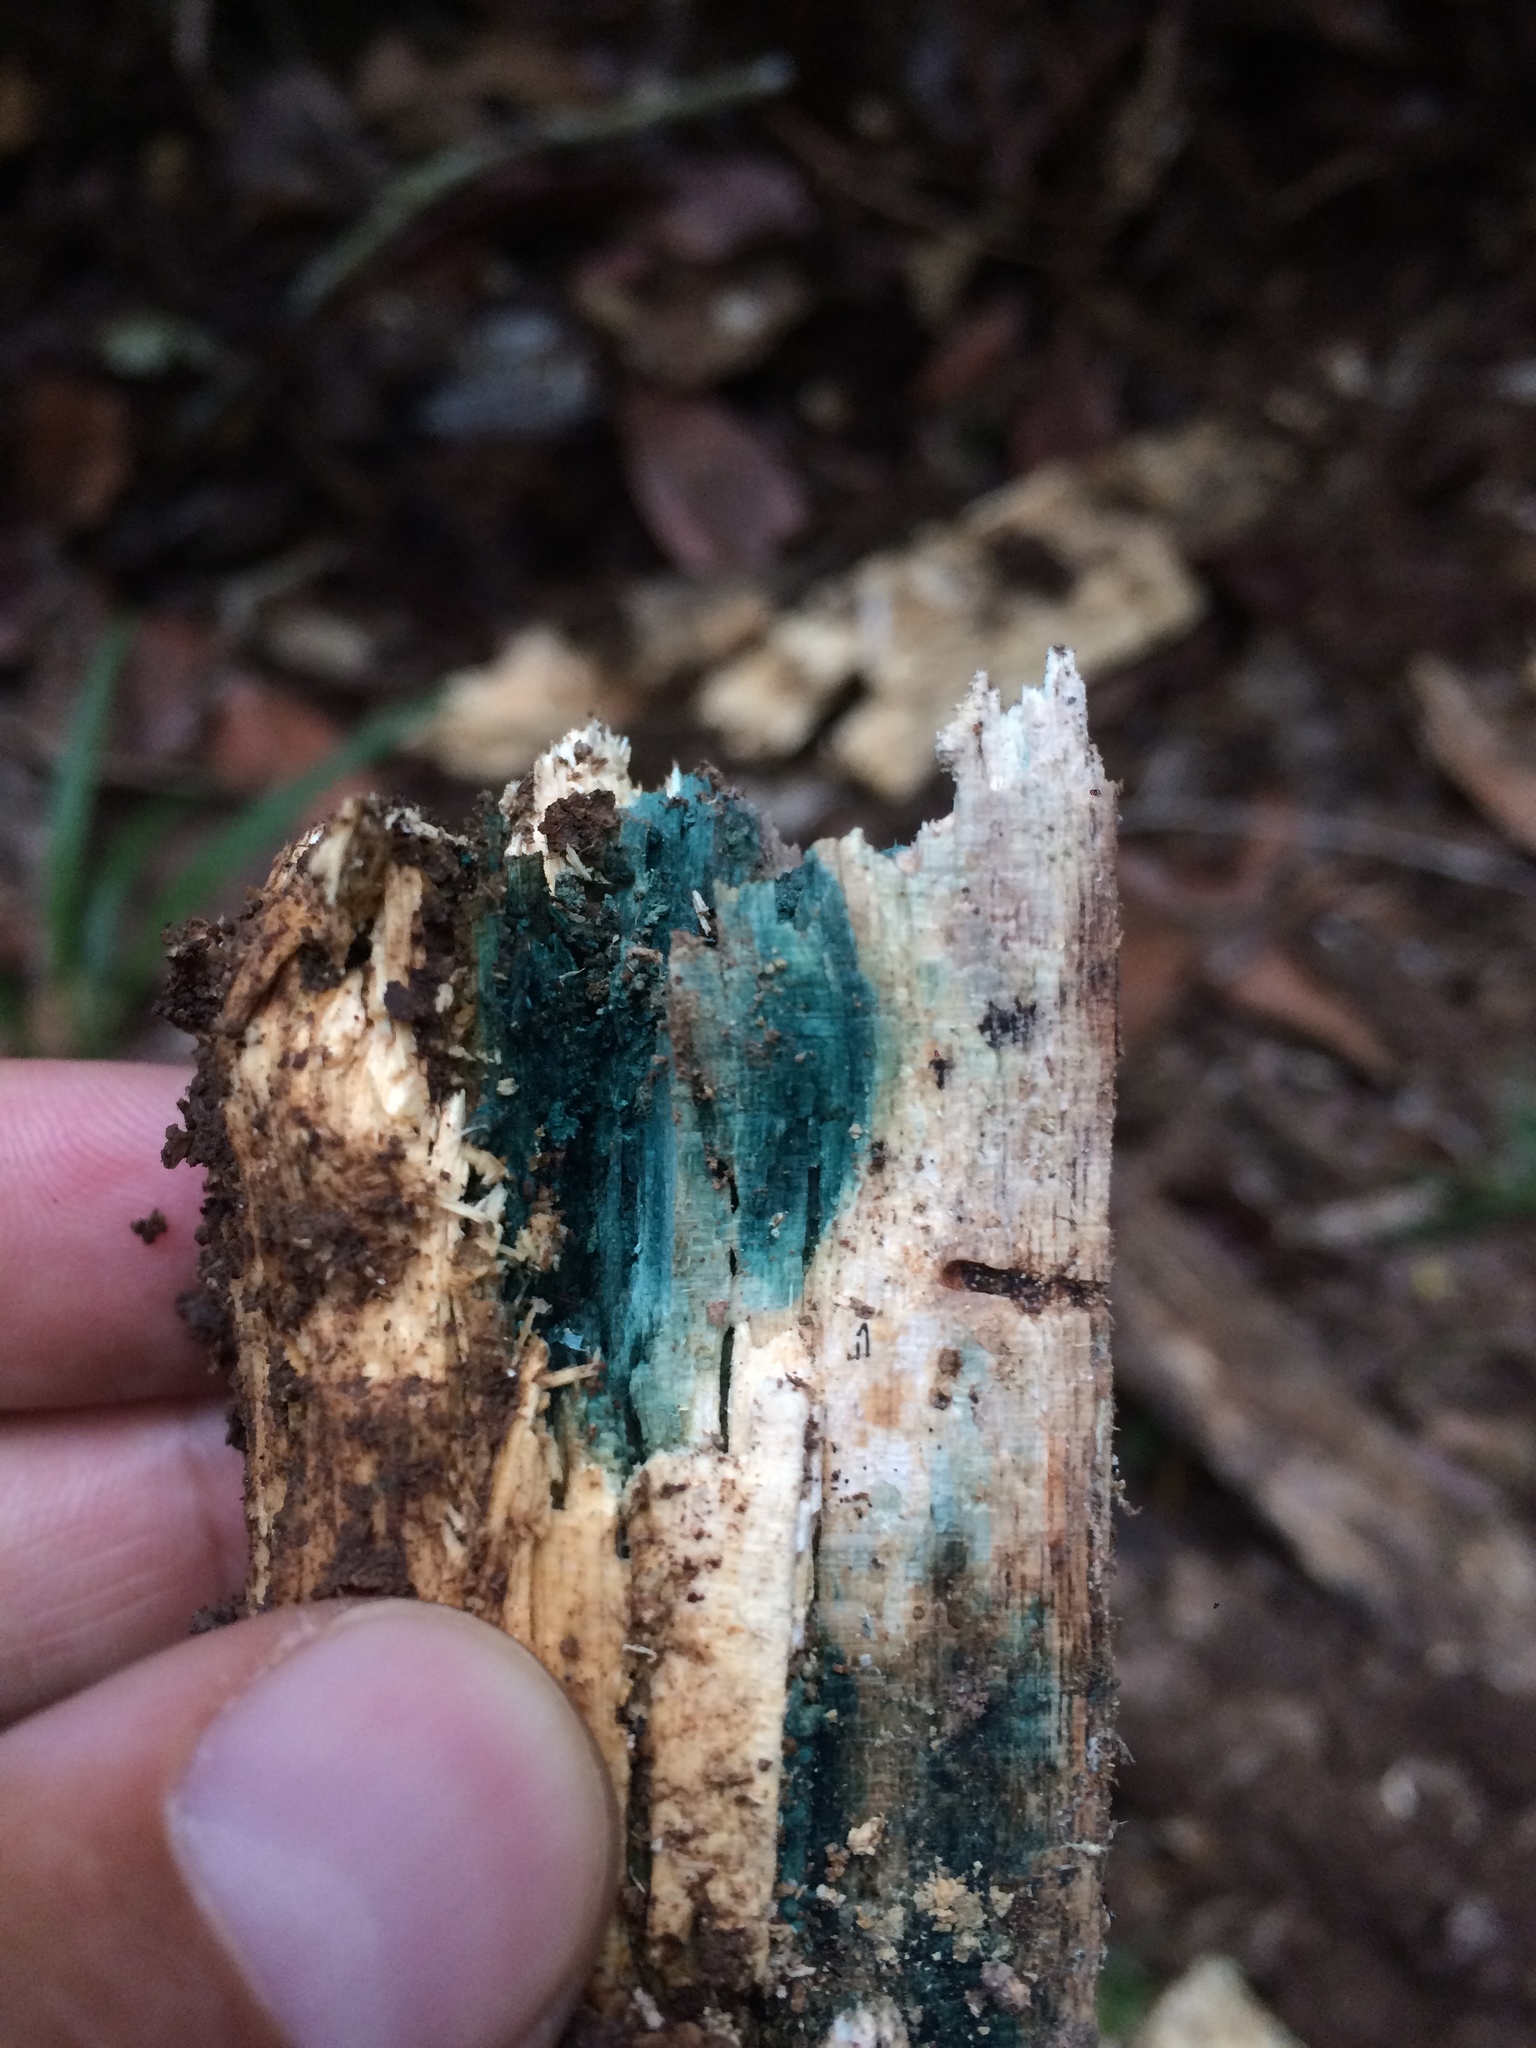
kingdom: Fungi
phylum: Ascomycota
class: Leotiomycetes
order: Helotiales
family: Chlorociboriaceae
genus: Chlorociboria
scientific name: Chlorociboria
